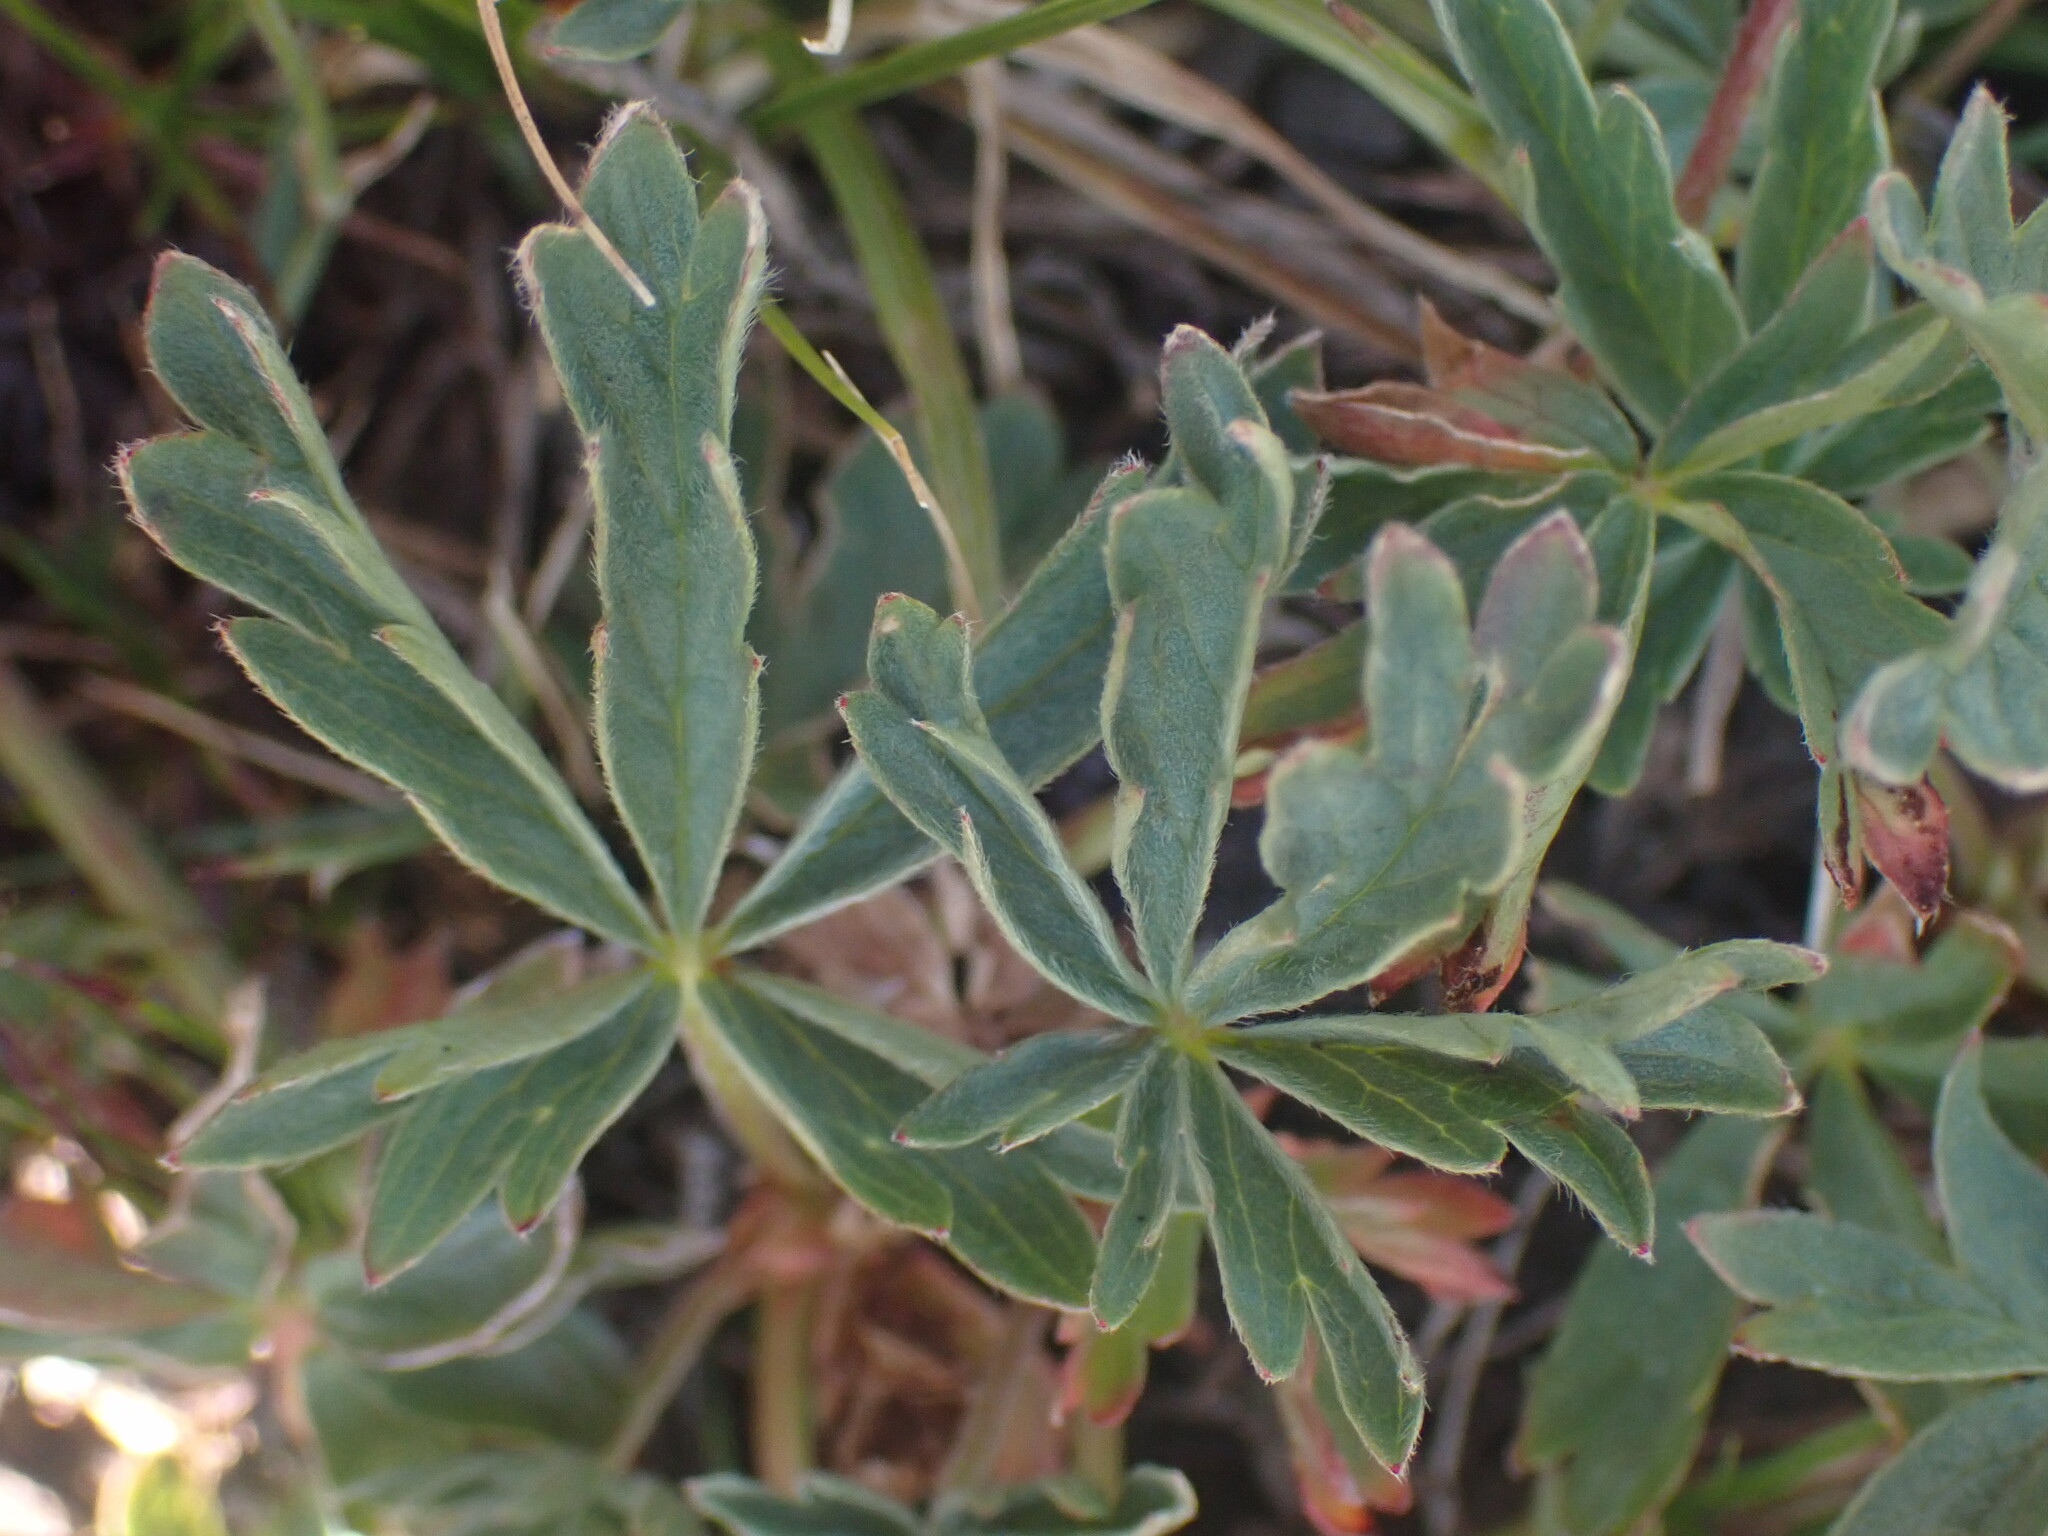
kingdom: Plantae
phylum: Tracheophyta
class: Magnoliopsida
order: Rosales
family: Rosaceae
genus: Potentilla
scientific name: Potentilla glaucophylla
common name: Blue-leaved cinquefoil
